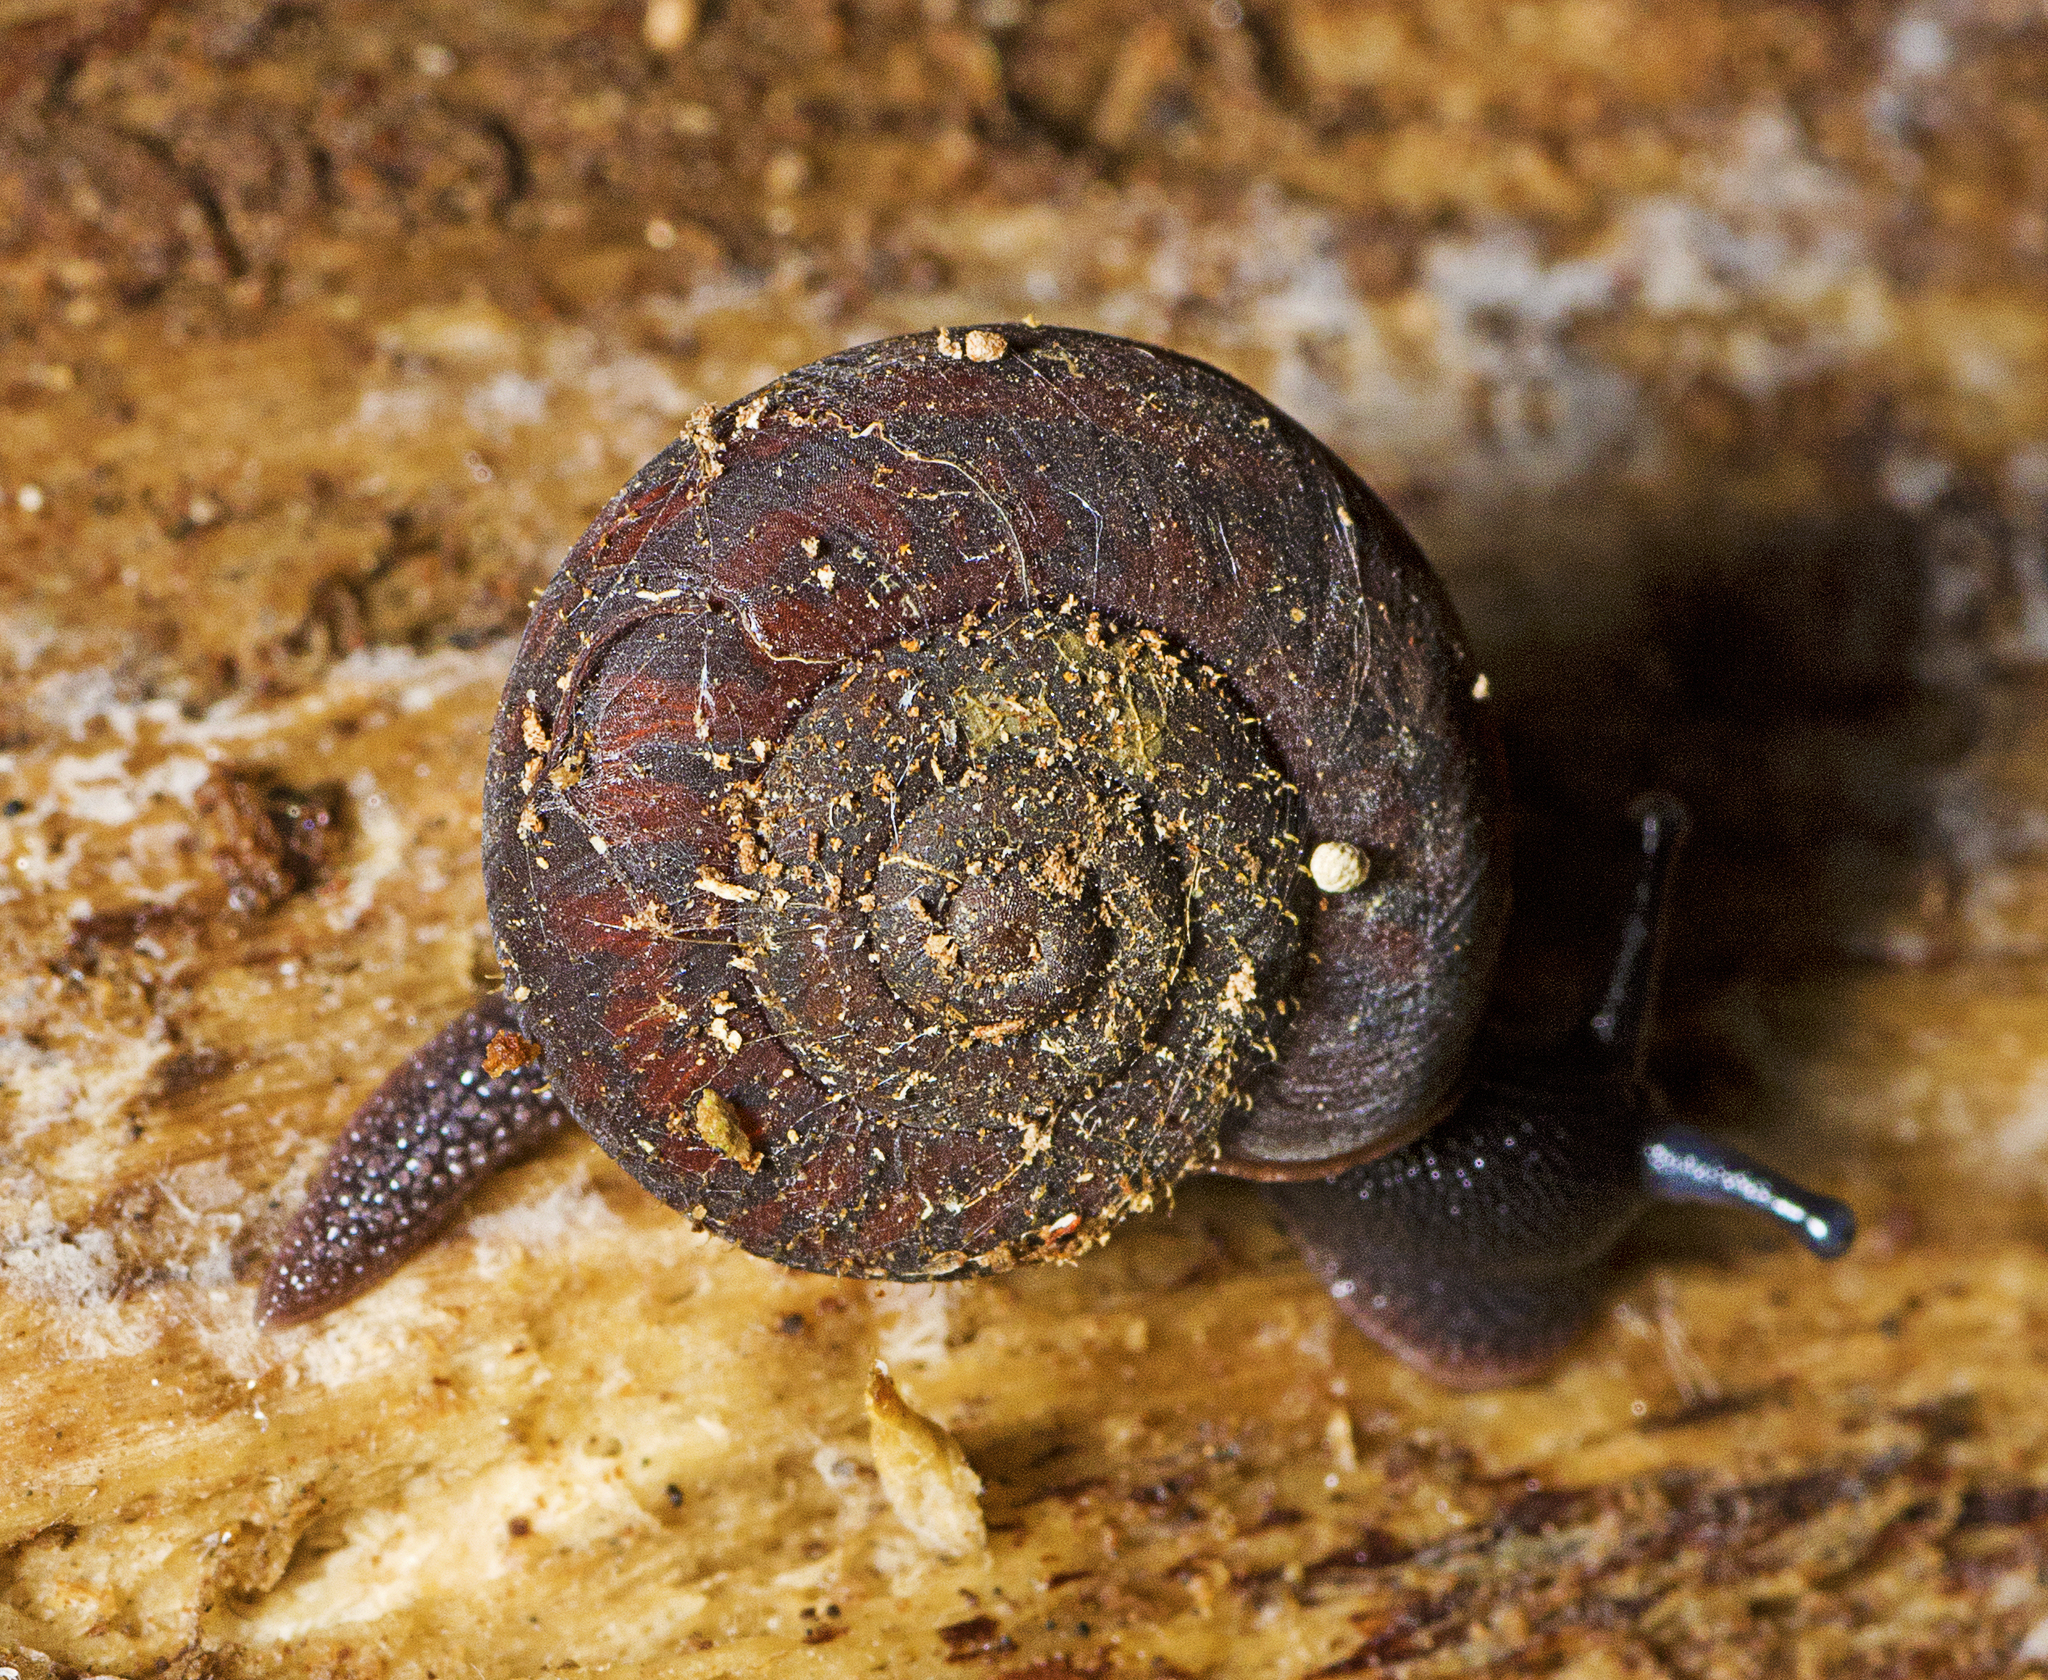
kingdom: Animalia
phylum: Mollusca
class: Gastropoda
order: Stylommatophora
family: Camaenidae
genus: Ramogenia
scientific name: Ramogenia challengeri
